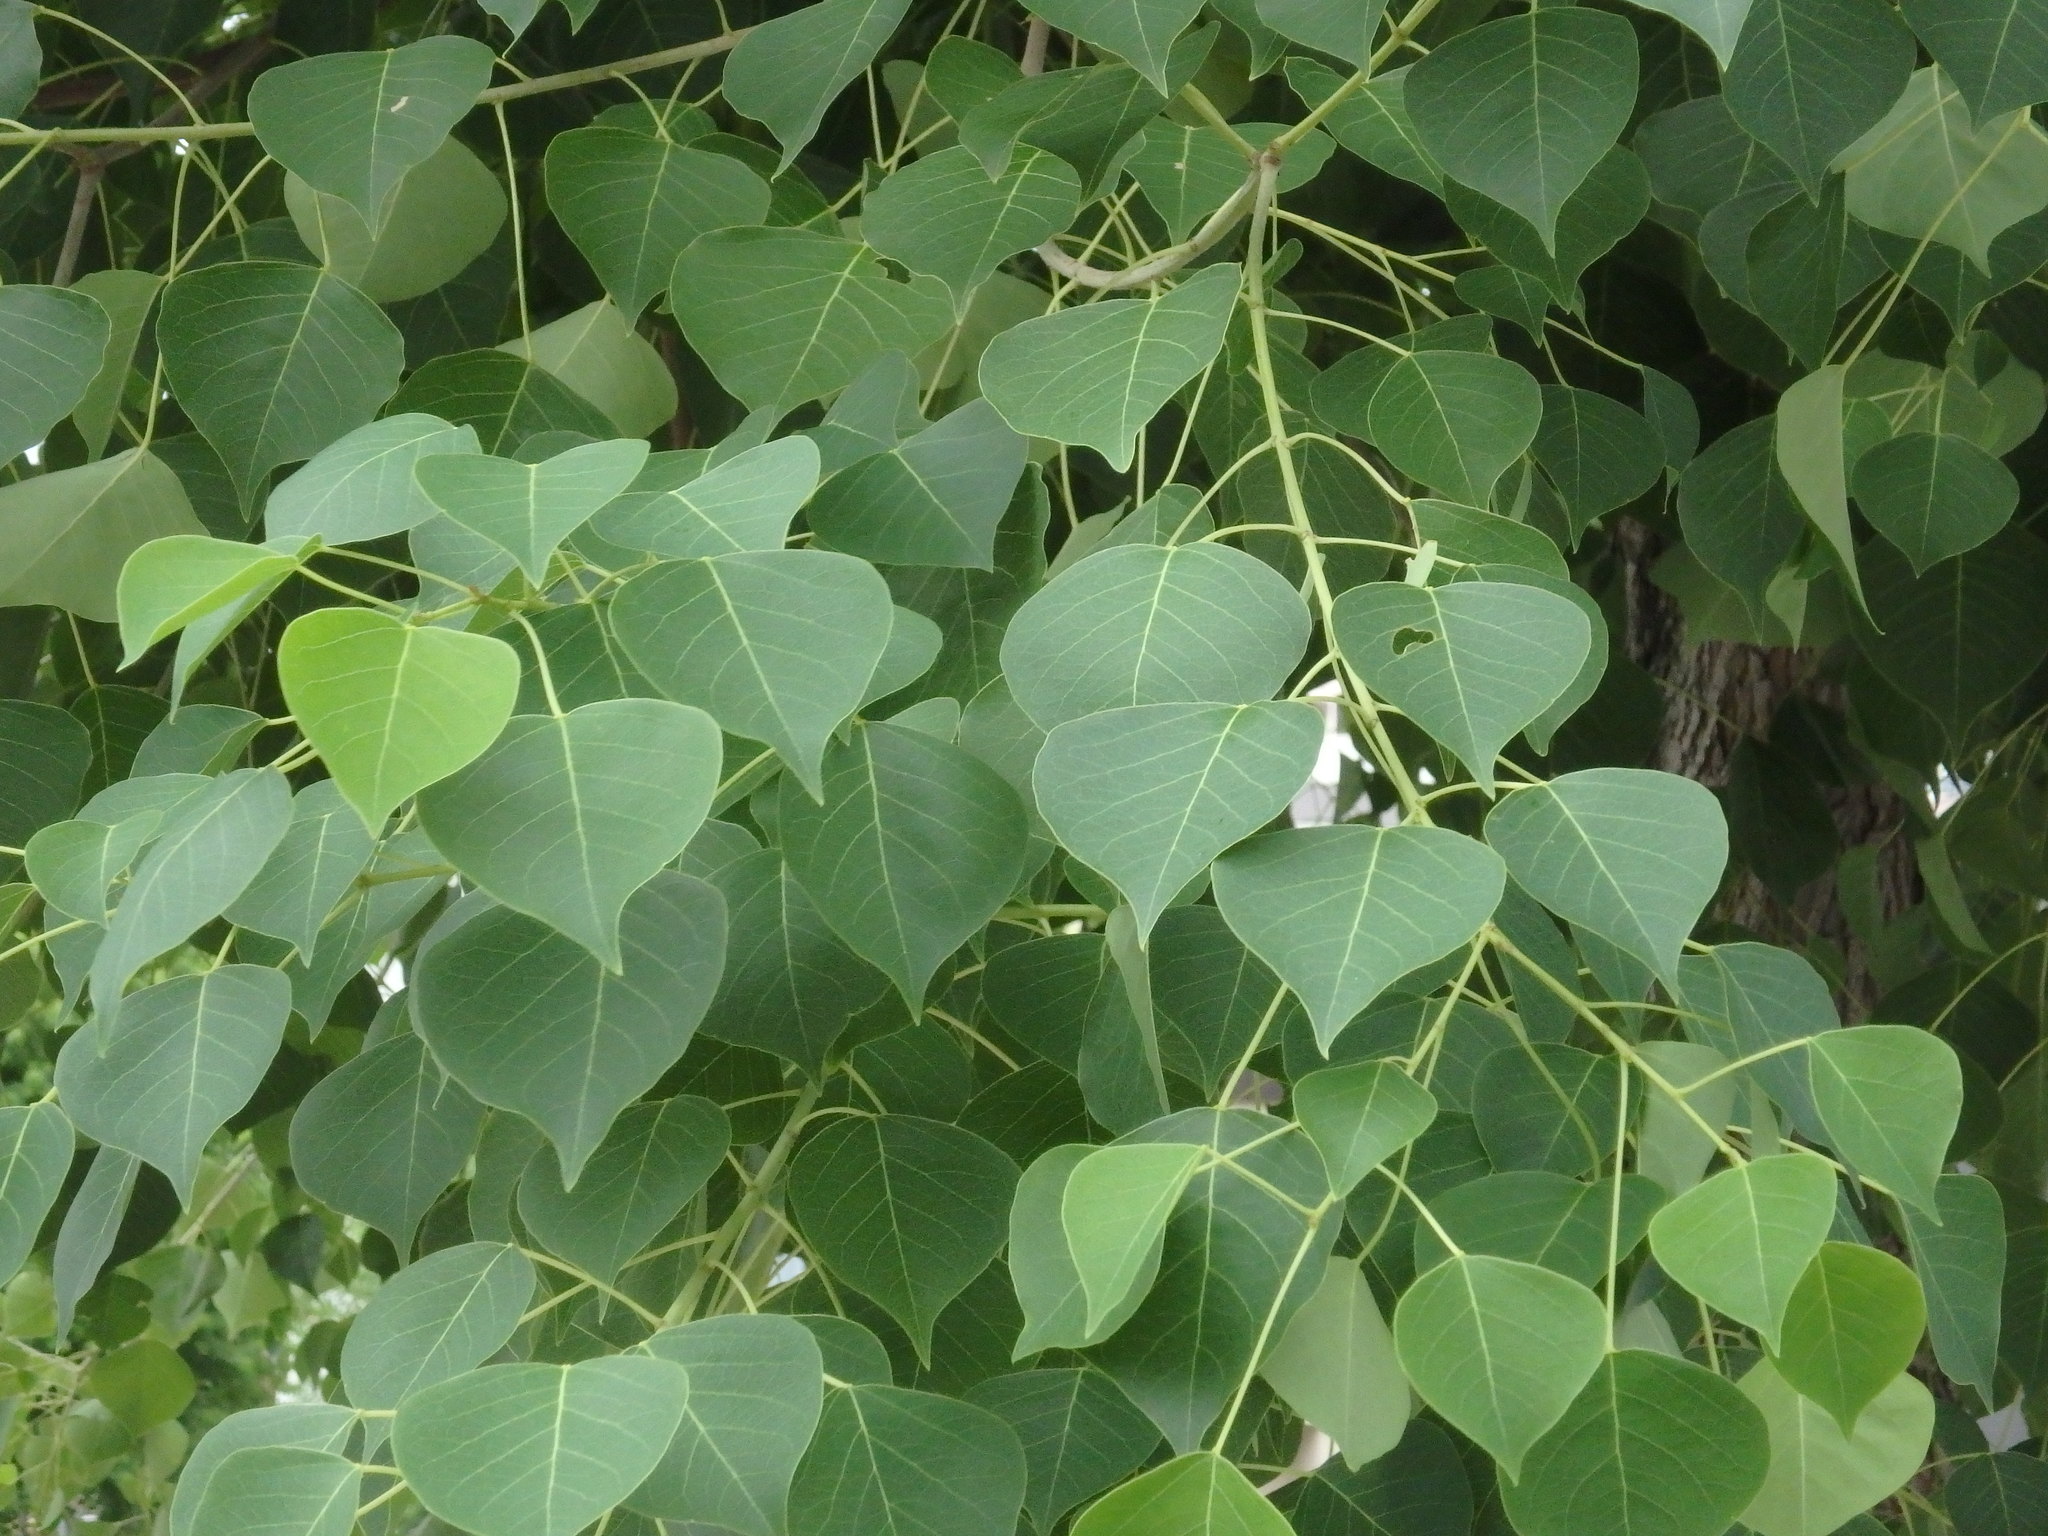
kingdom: Plantae
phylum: Tracheophyta
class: Magnoliopsida
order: Malpighiales
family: Euphorbiaceae
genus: Triadica
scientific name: Triadica sebifera
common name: Chinese tallow
